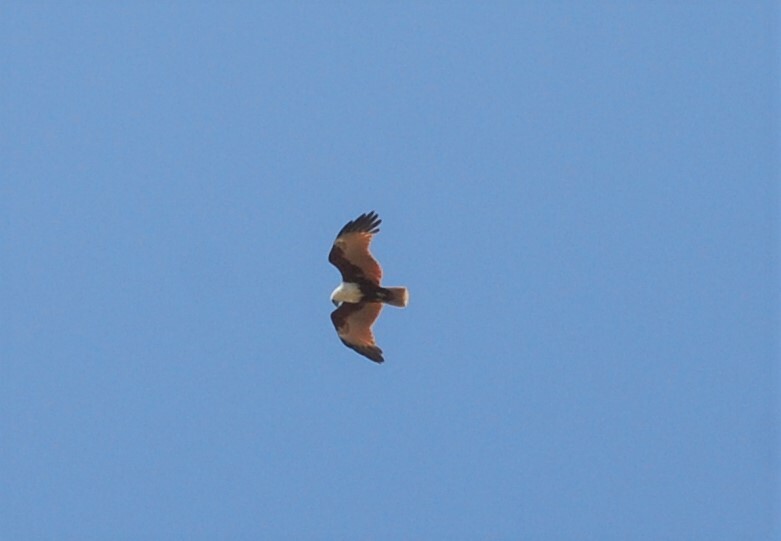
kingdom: Animalia
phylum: Chordata
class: Aves
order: Accipitriformes
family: Accipitridae
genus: Haliastur
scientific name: Haliastur indus
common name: Brahminy kite
